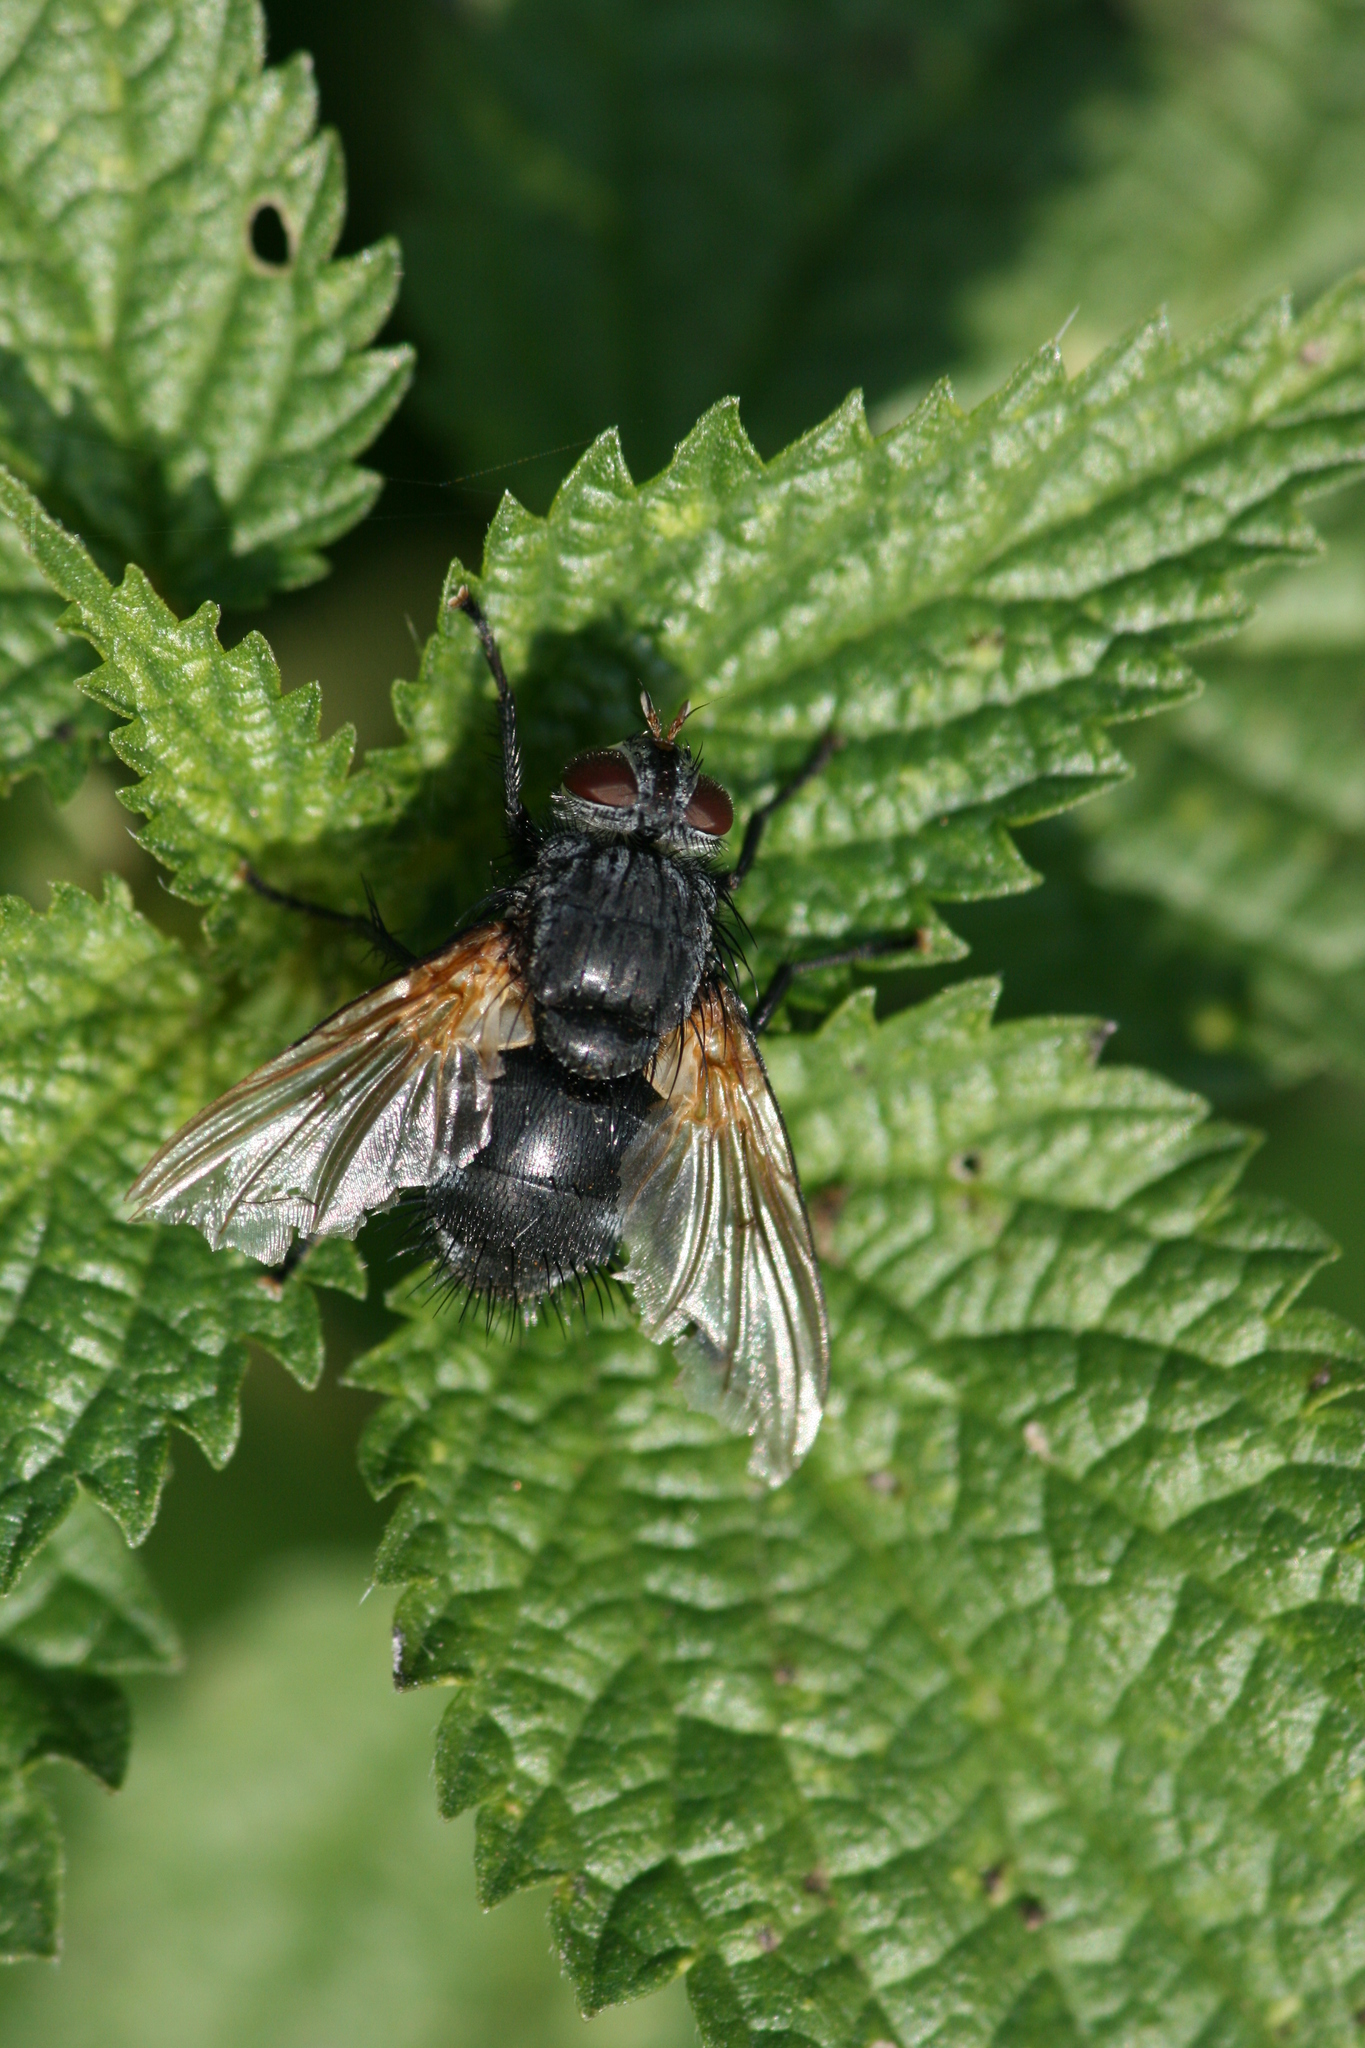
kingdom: Animalia
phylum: Arthropoda
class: Insecta
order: Diptera
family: Tachinidae
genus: Nemoraea
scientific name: Nemoraea pellucida
